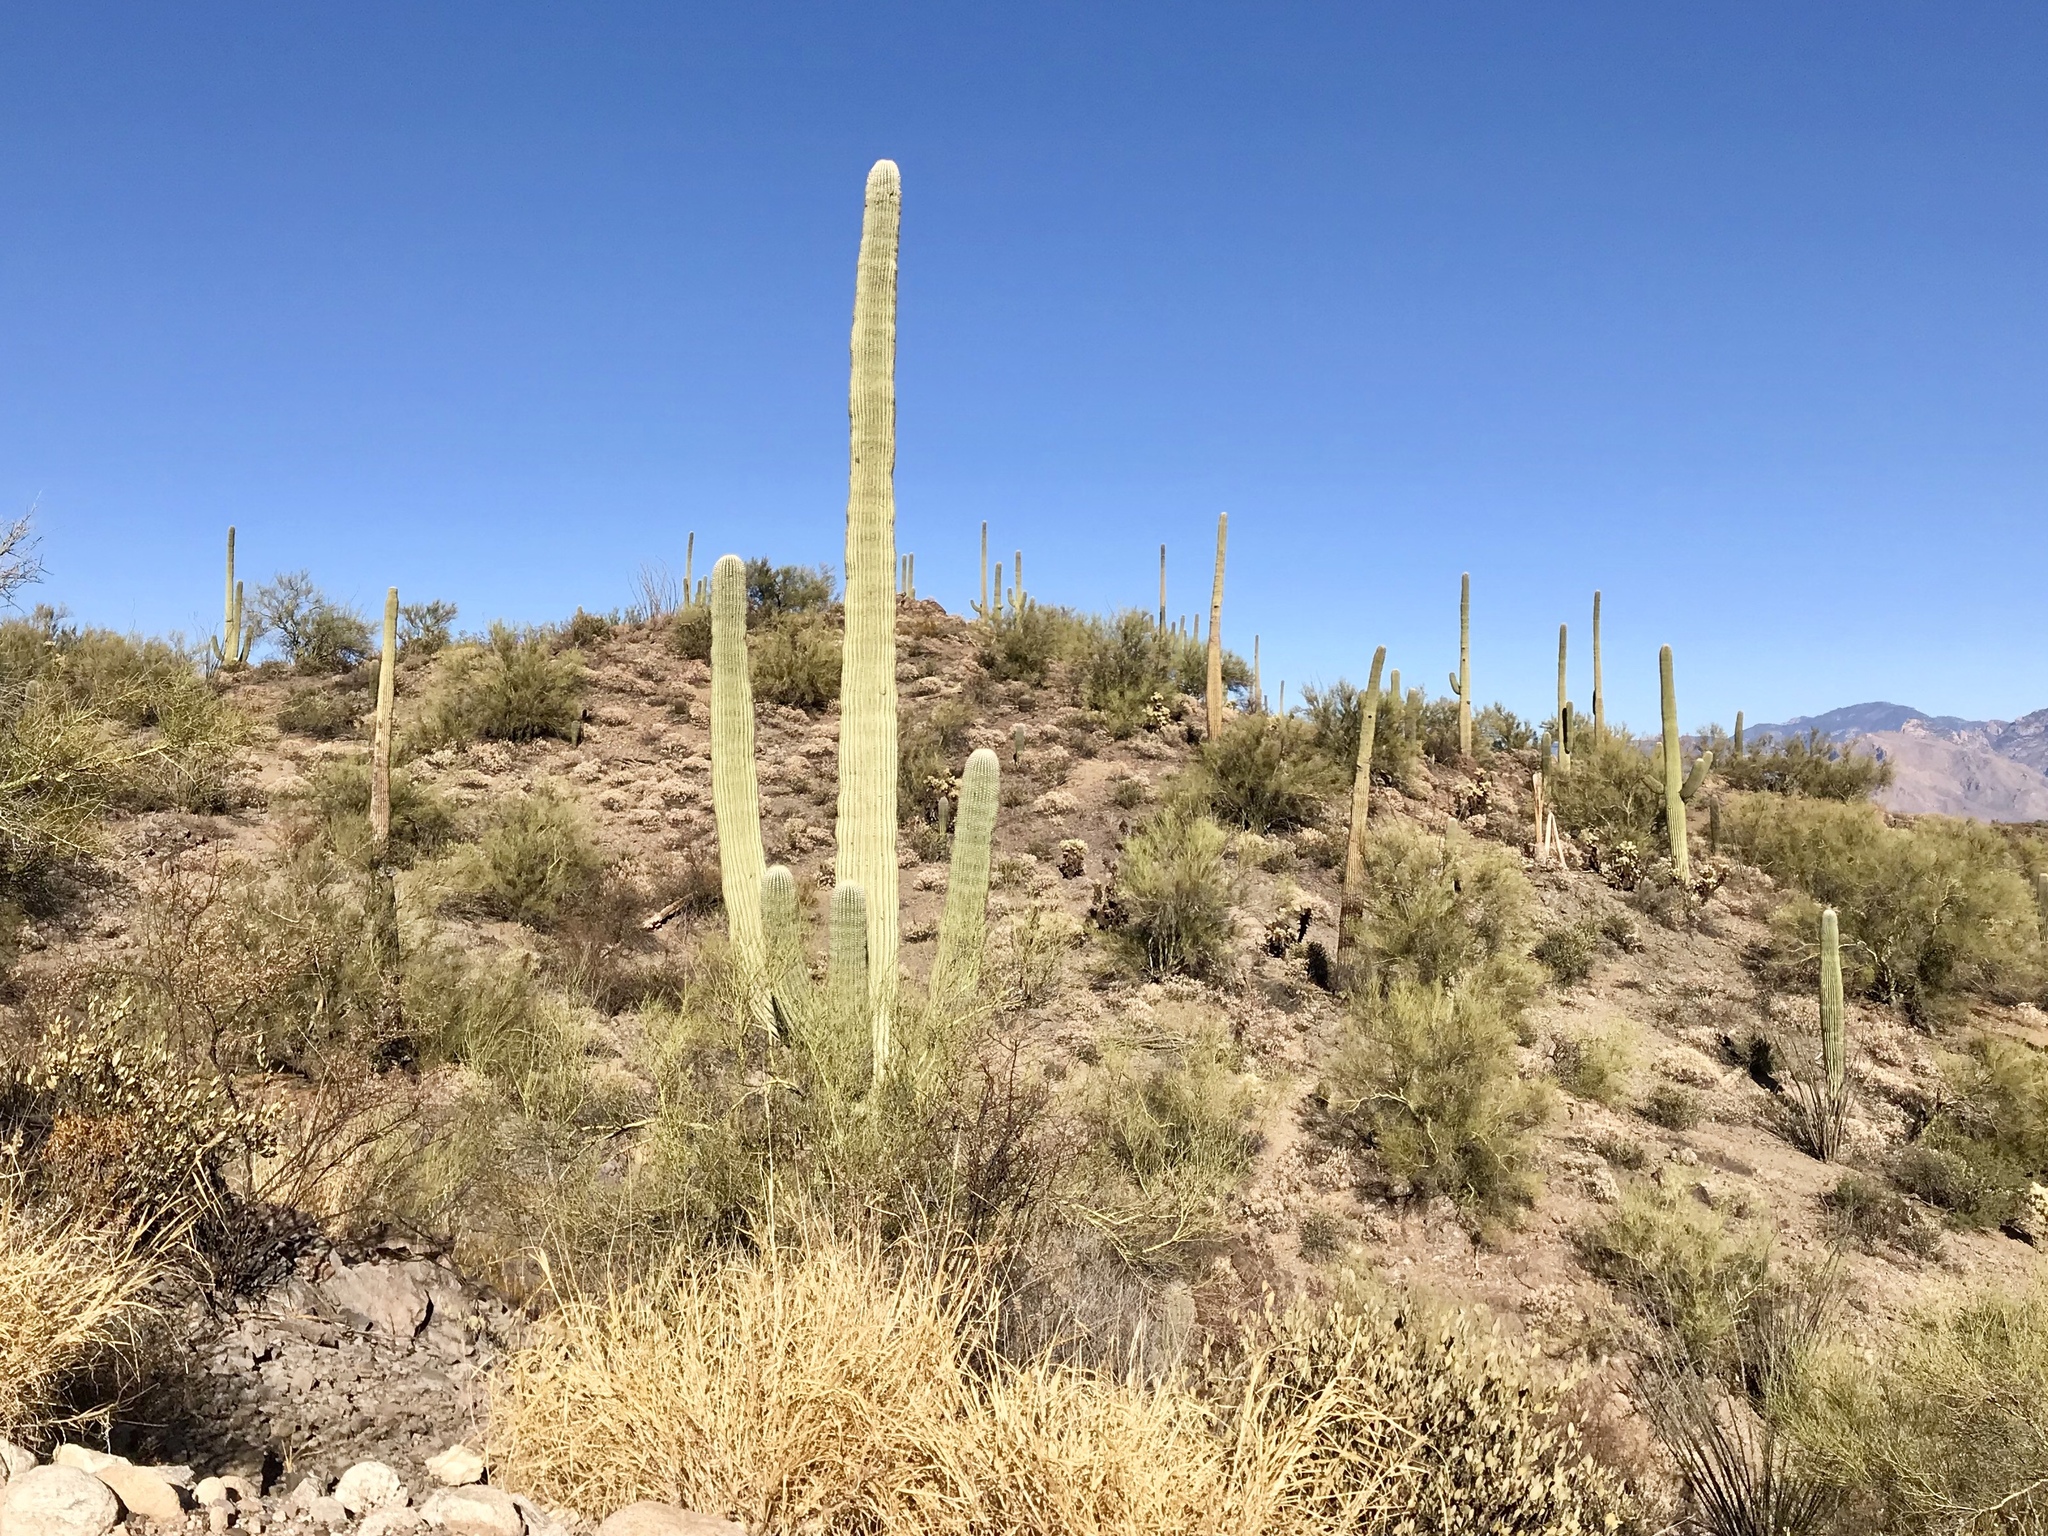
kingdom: Plantae
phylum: Tracheophyta
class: Magnoliopsida
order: Caryophyllales
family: Cactaceae
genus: Carnegiea
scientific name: Carnegiea gigantea
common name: Saguaro
